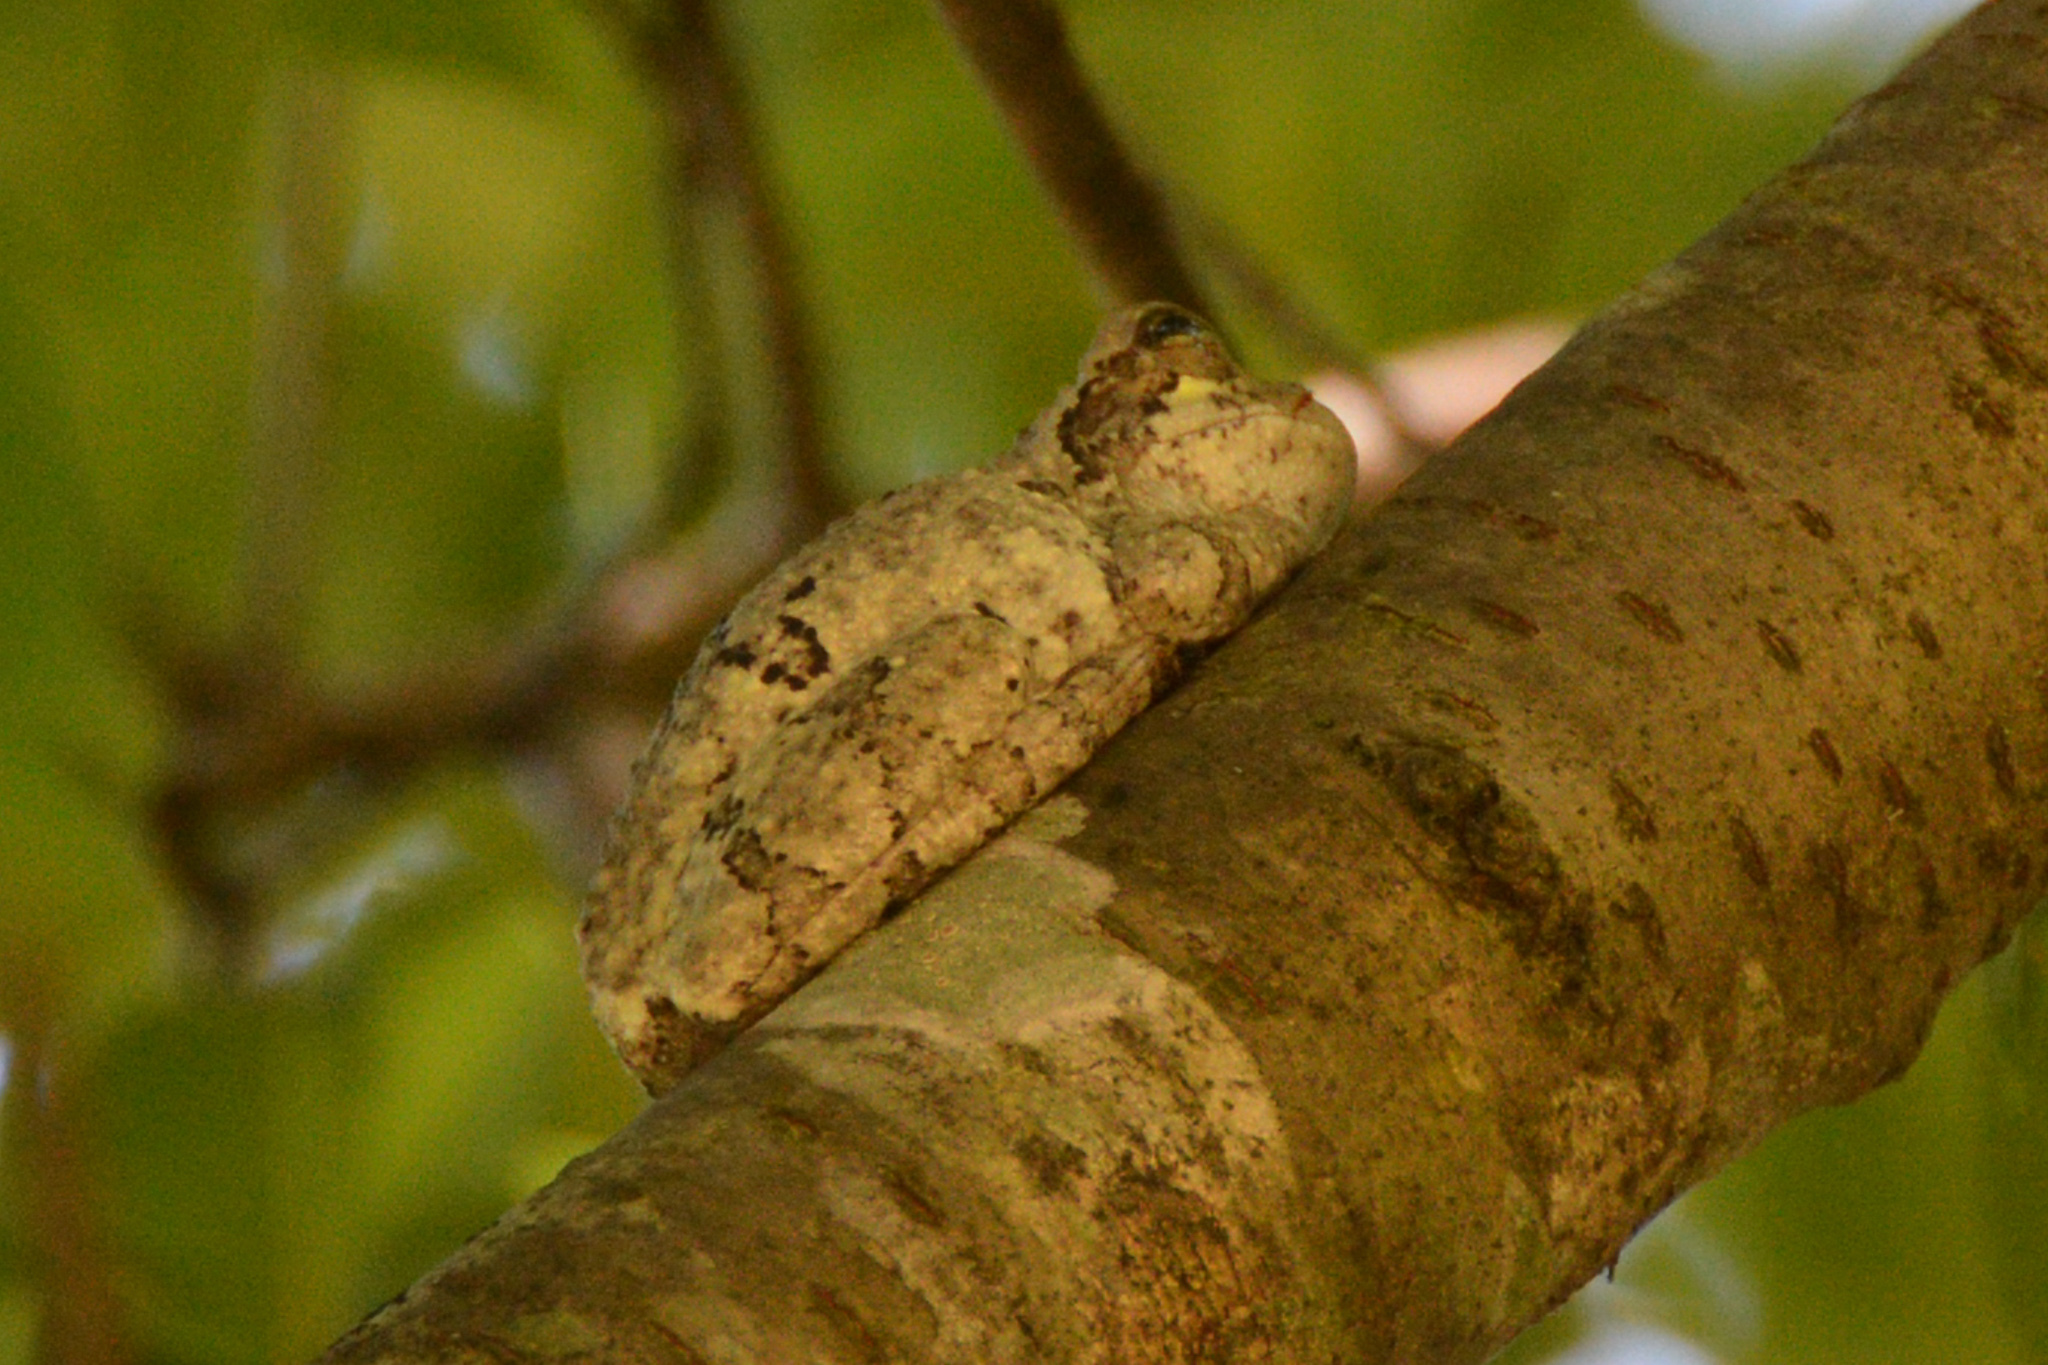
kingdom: Animalia
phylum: Chordata
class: Amphibia
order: Anura
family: Hylidae
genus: Dryophytes
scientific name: Dryophytes chrysoscelis
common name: Cope's gray treefrog
